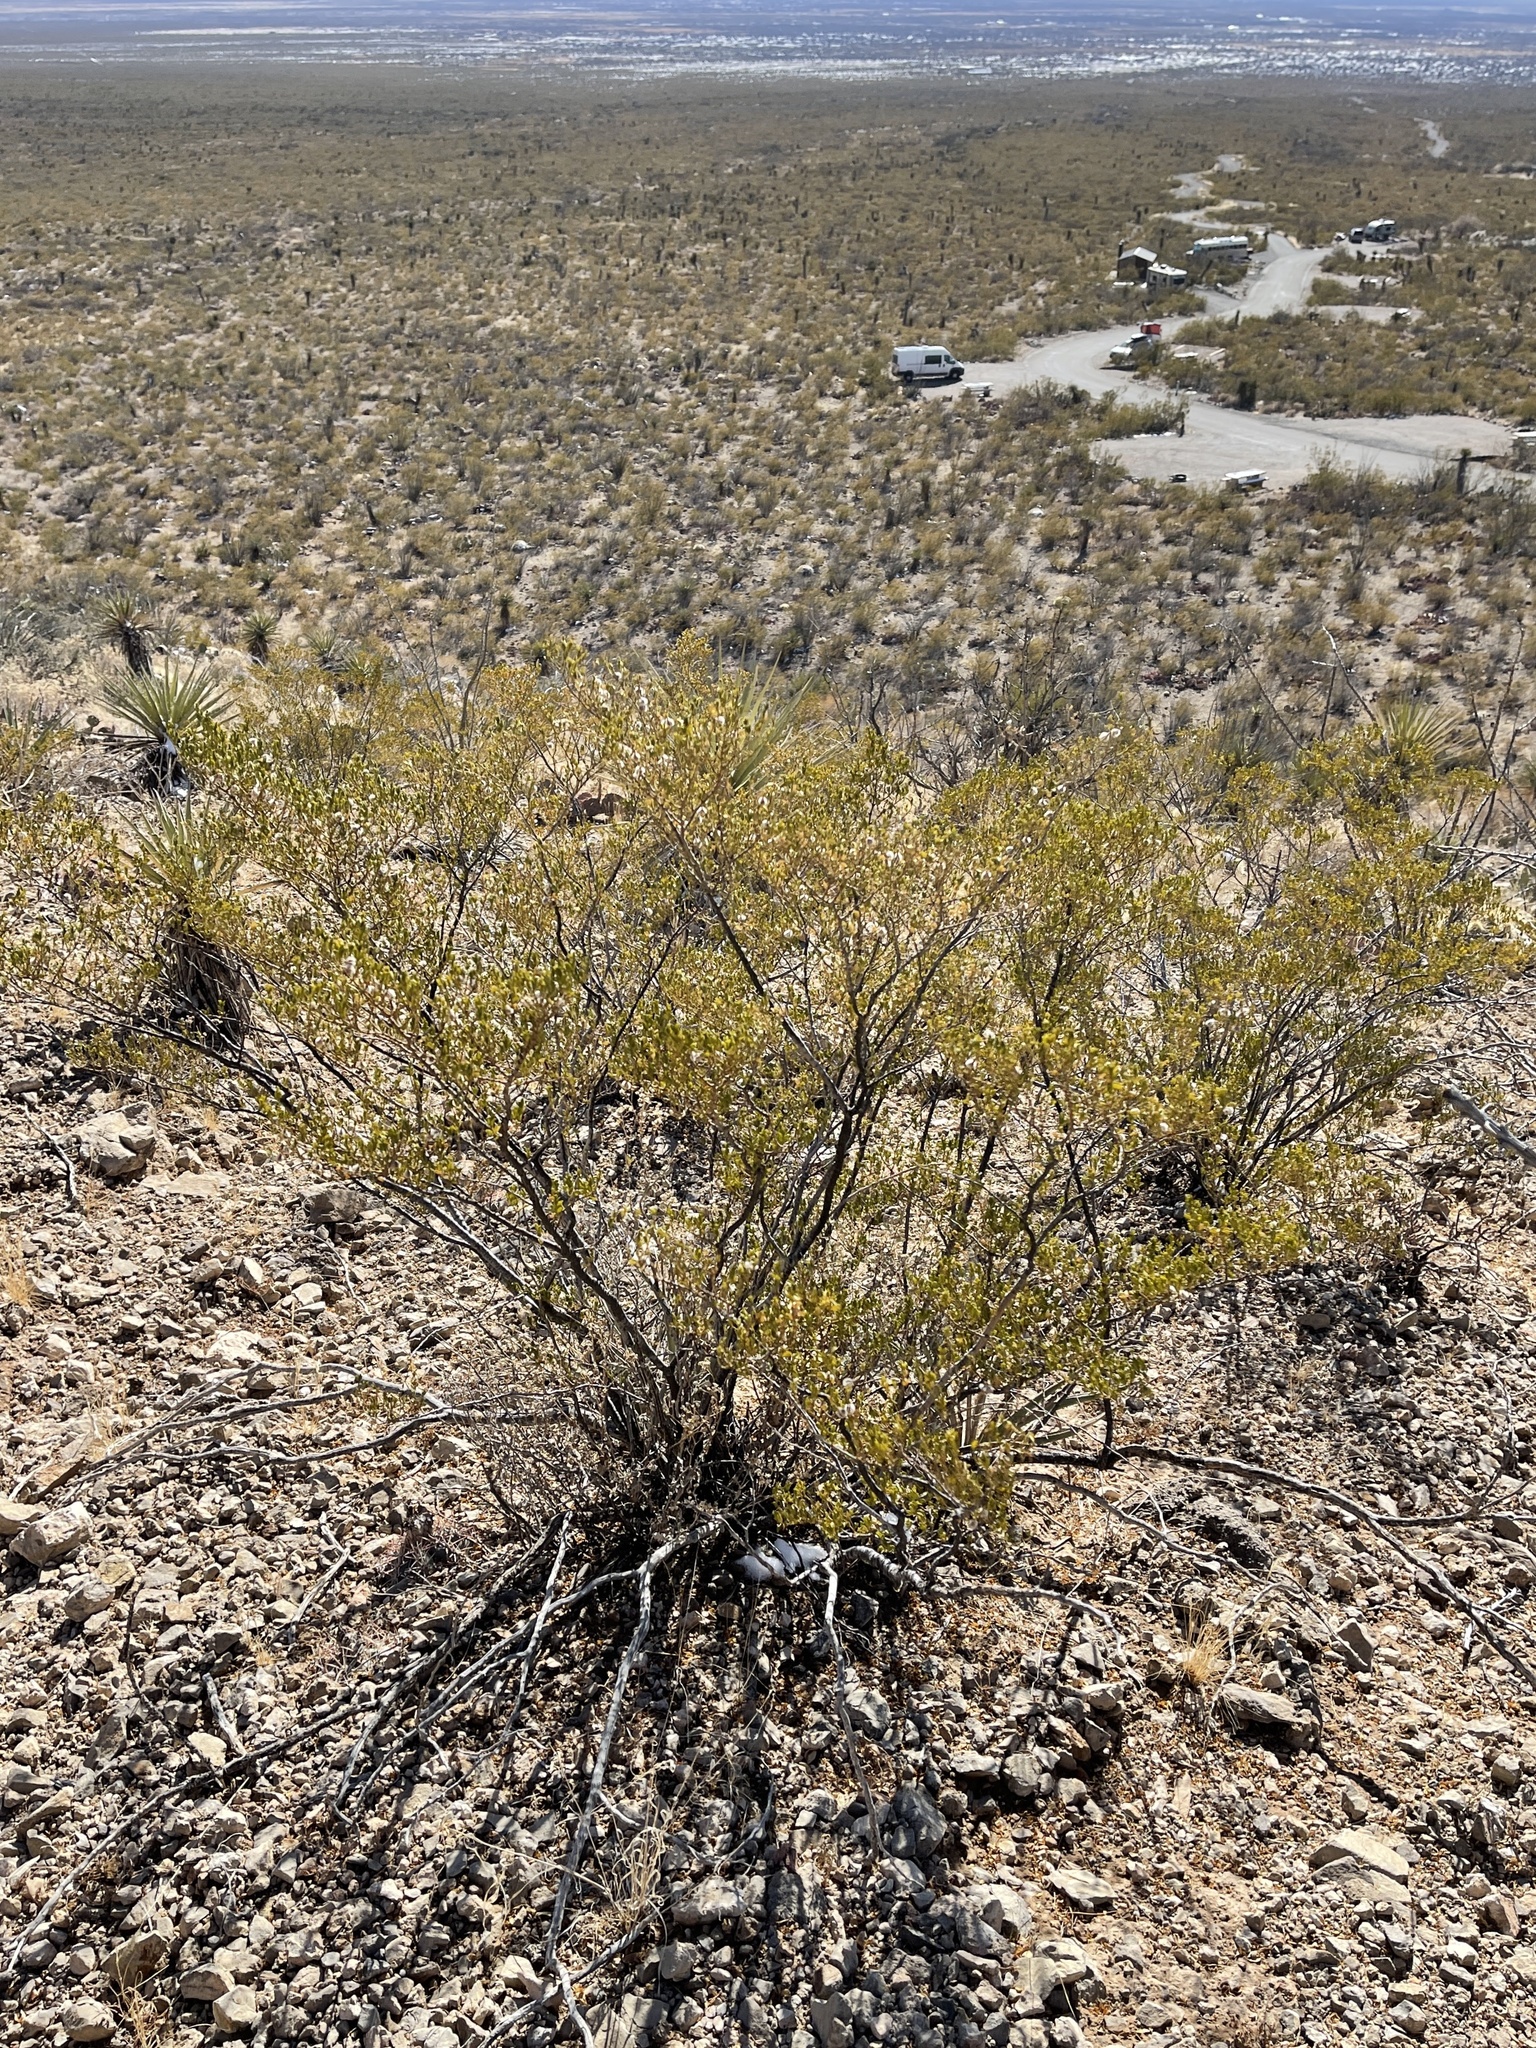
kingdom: Plantae
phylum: Tracheophyta
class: Magnoliopsida
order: Zygophyllales
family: Zygophyllaceae
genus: Larrea
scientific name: Larrea tridentata
